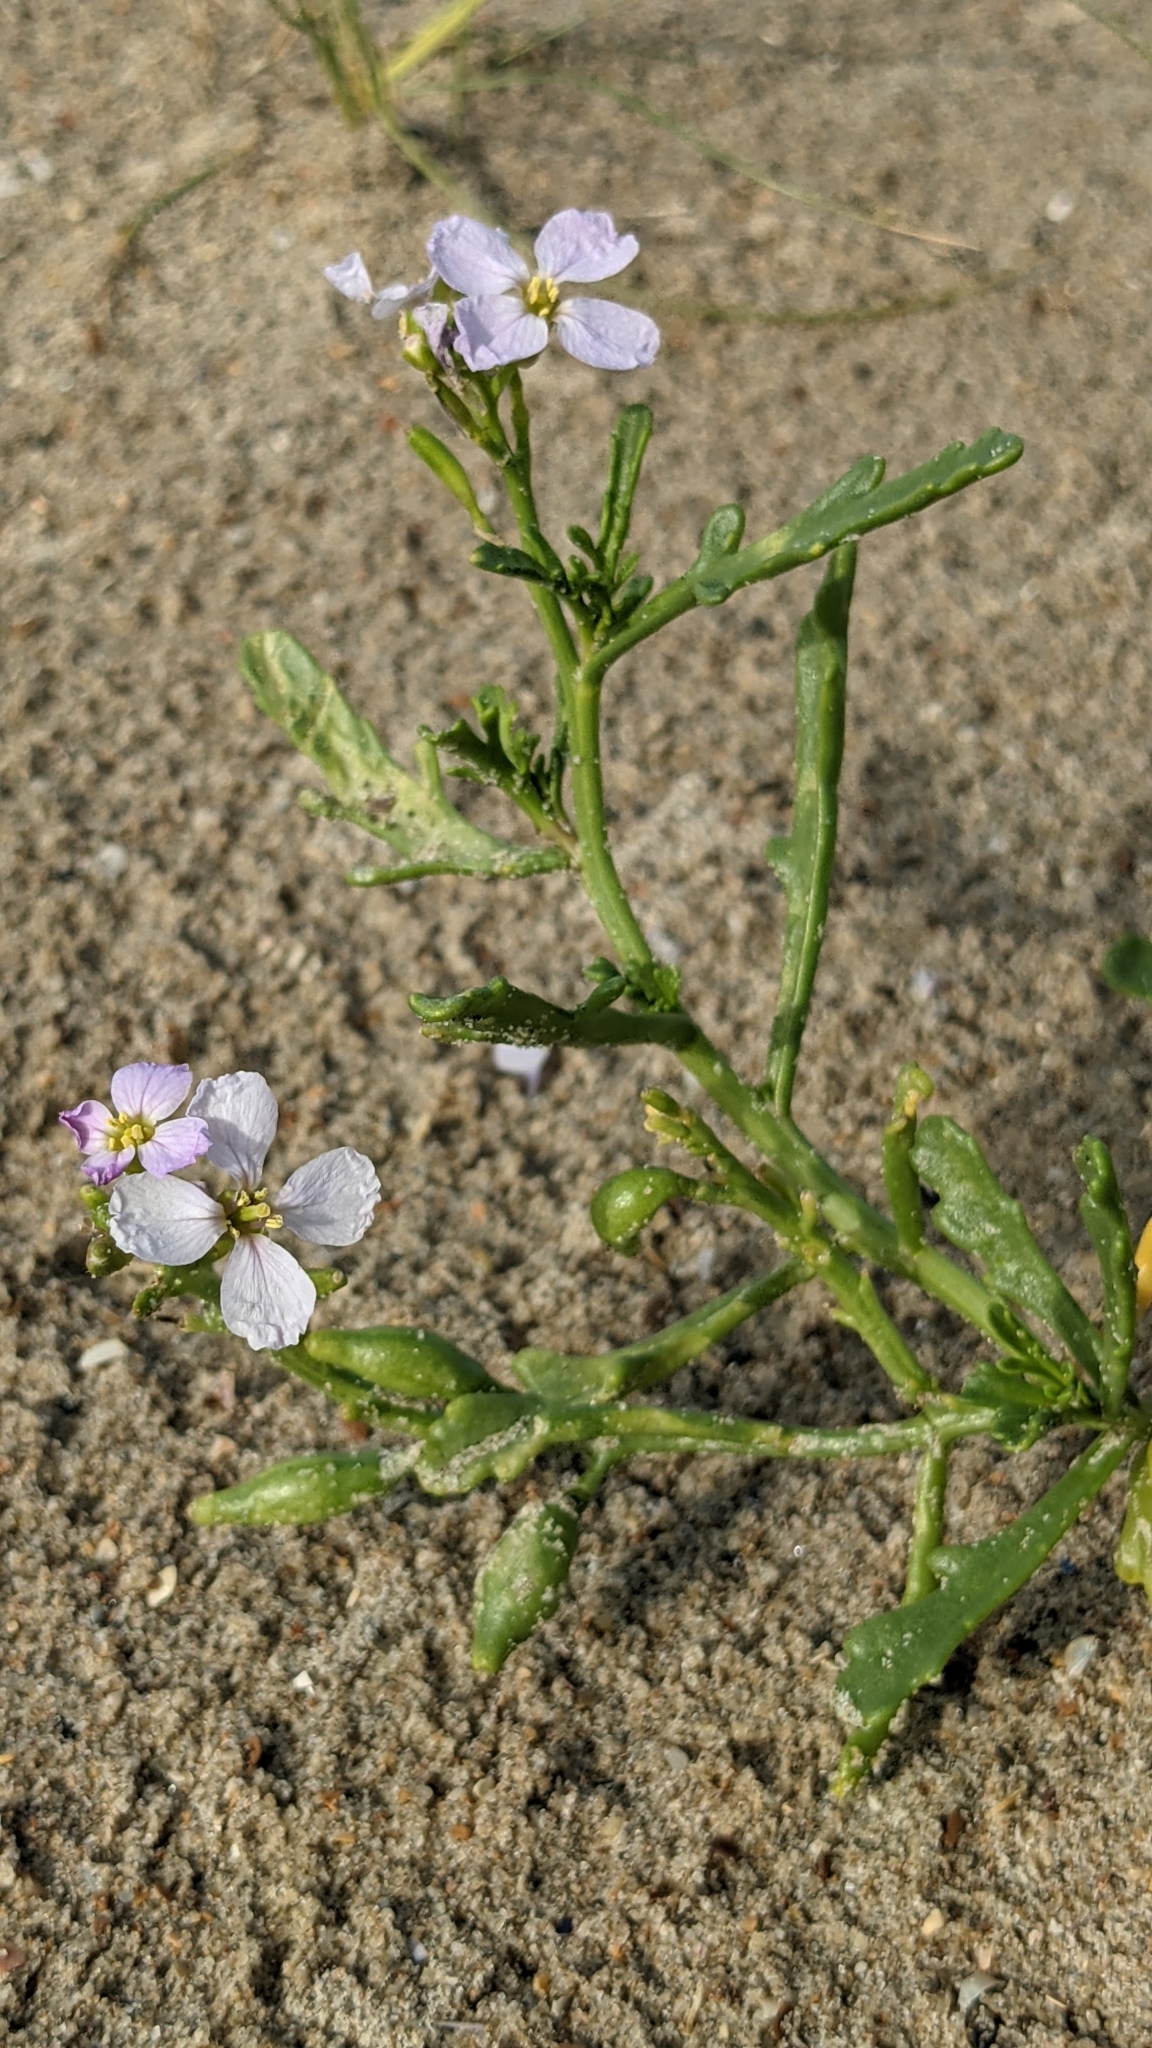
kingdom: Plantae
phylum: Tracheophyta
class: Magnoliopsida
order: Brassicales
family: Brassicaceae
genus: Cakile
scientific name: Cakile maritima
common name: Sea rocket
